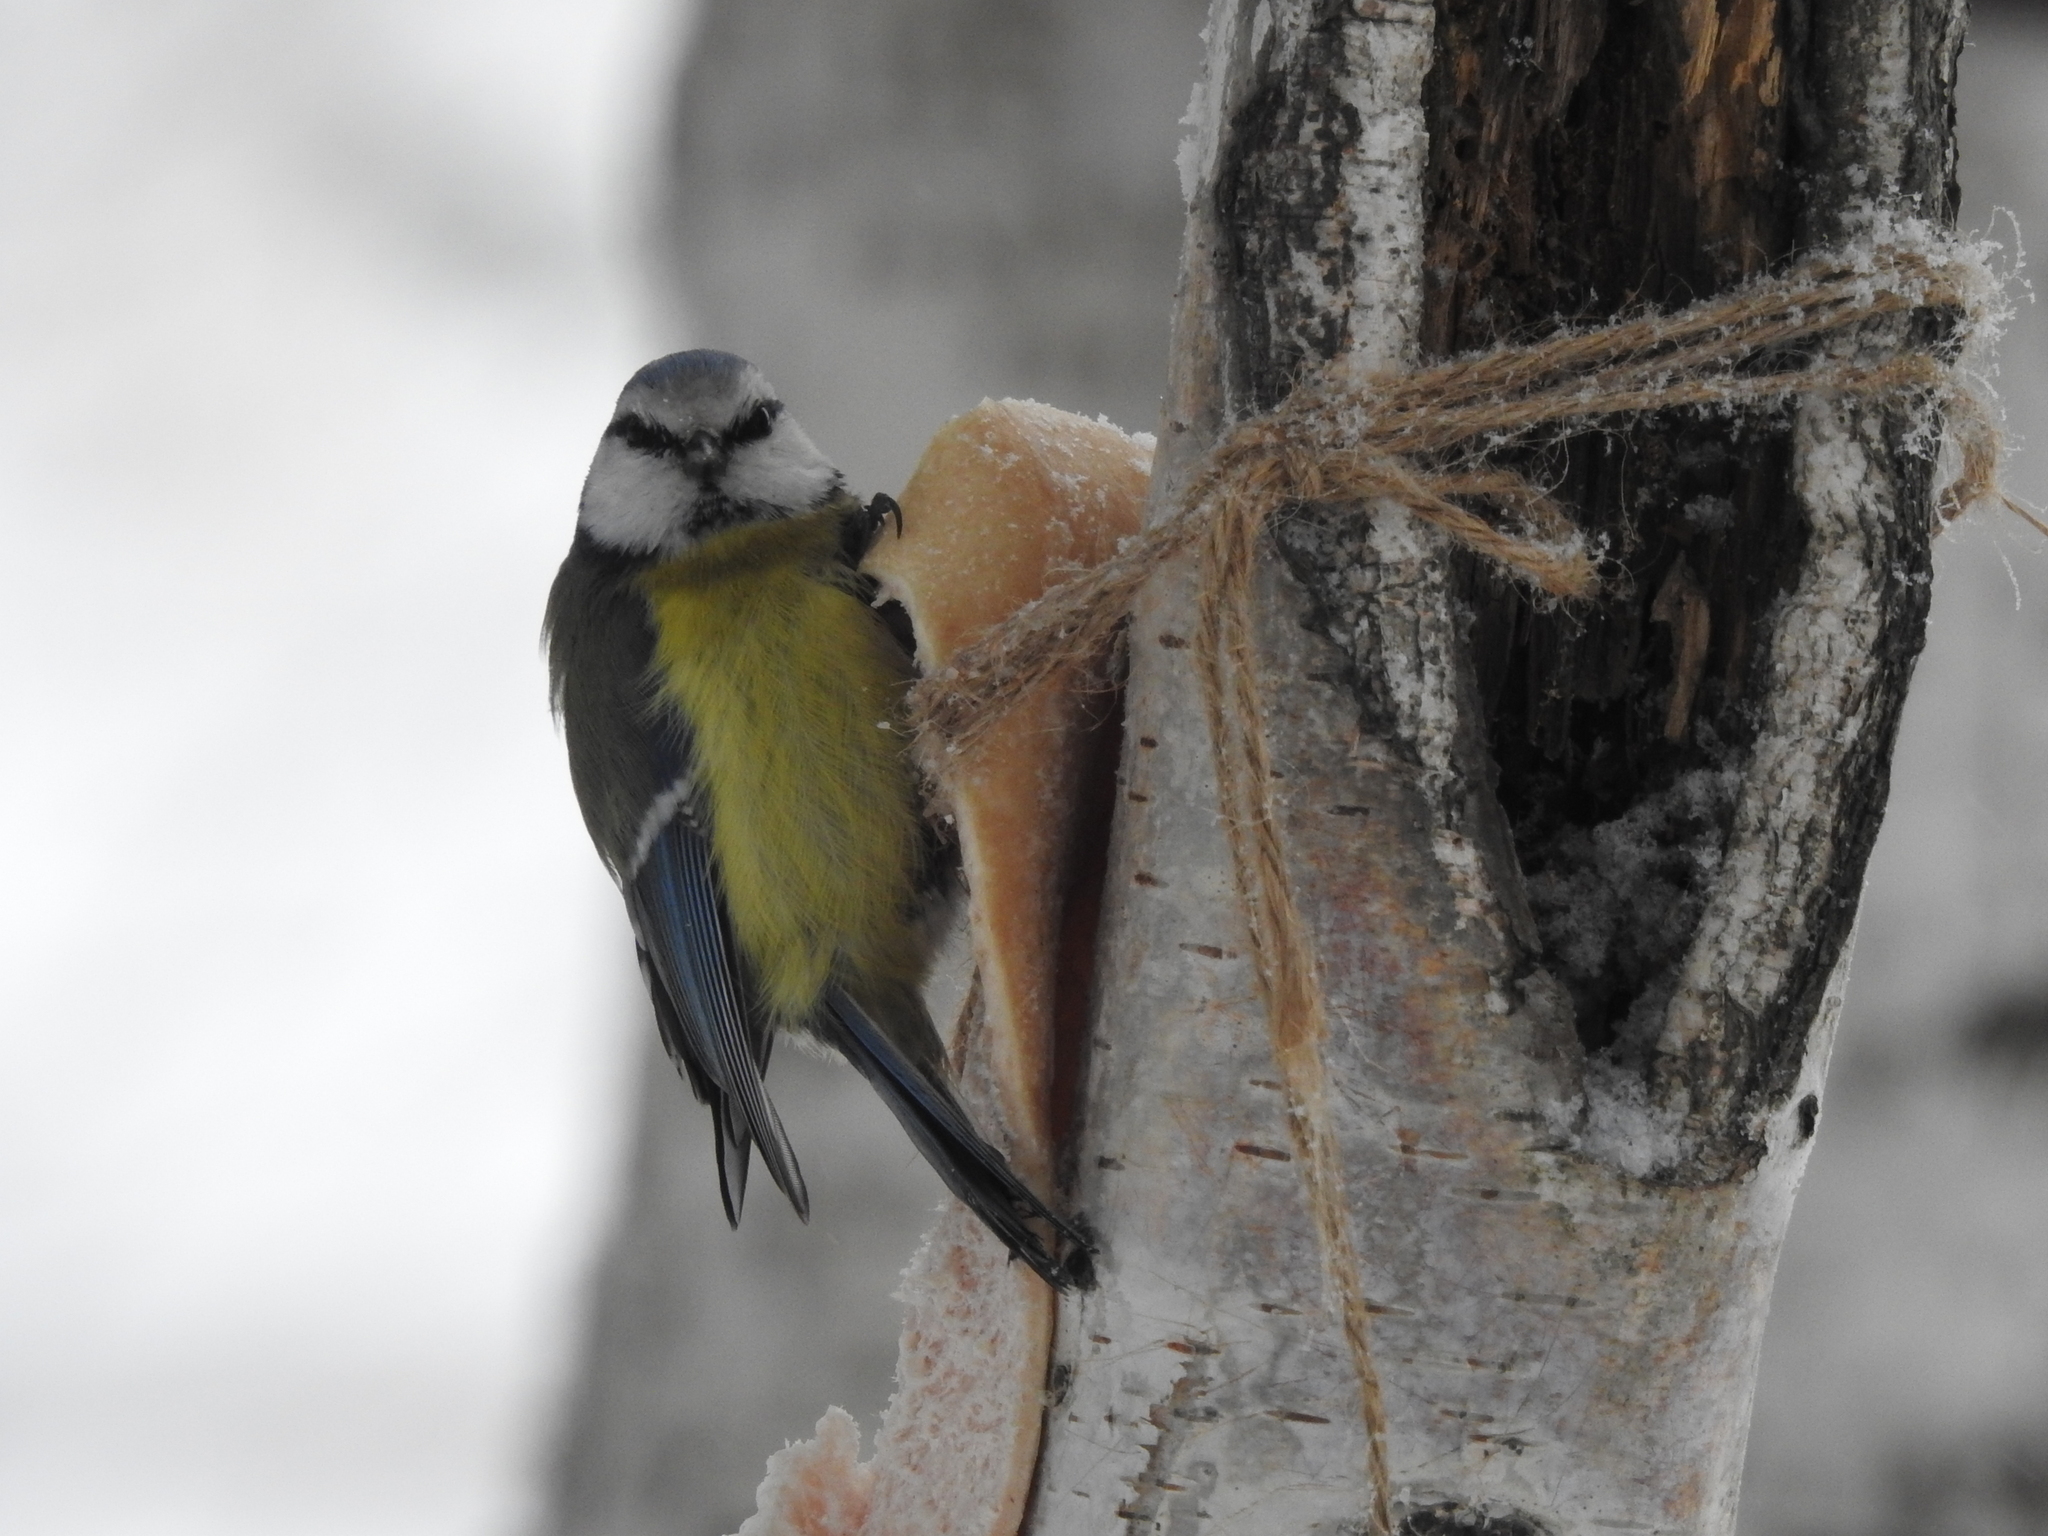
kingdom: Animalia
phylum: Chordata
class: Aves
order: Passeriformes
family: Paridae
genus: Cyanistes
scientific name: Cyanistes caeruleus
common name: Eurasian blue tit
